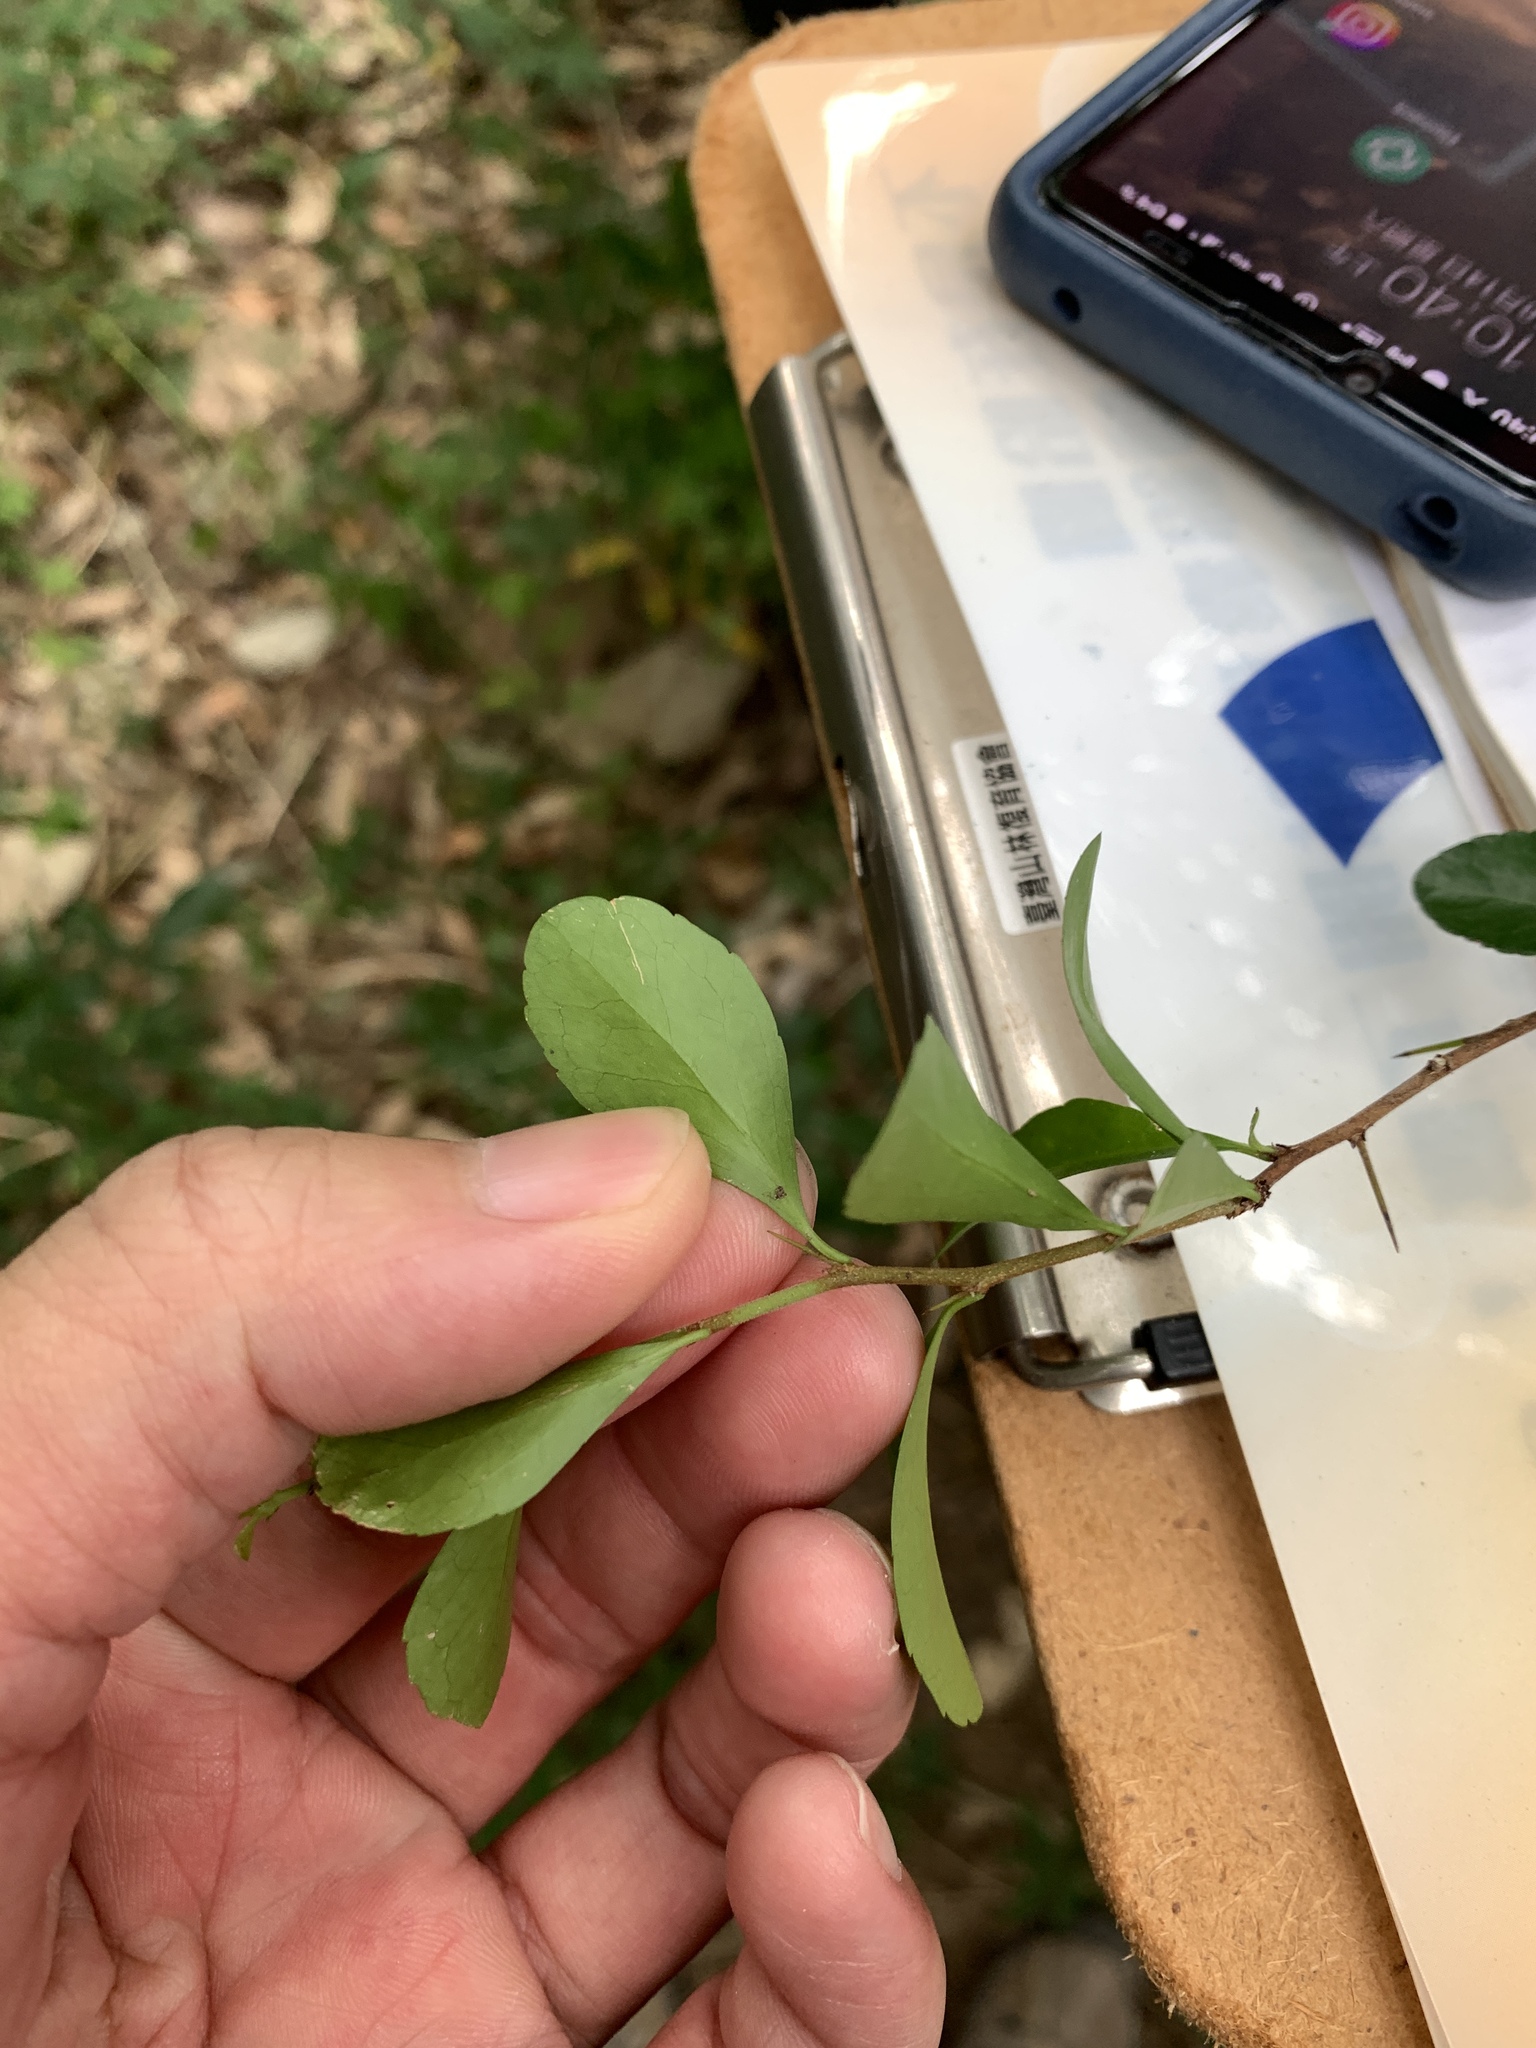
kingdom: Plantae
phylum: Tracheophyta
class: Magnoliopsida
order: Celastrales
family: Celastraceae
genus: Gymnosporia
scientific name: Gymnosporia diversifolia
